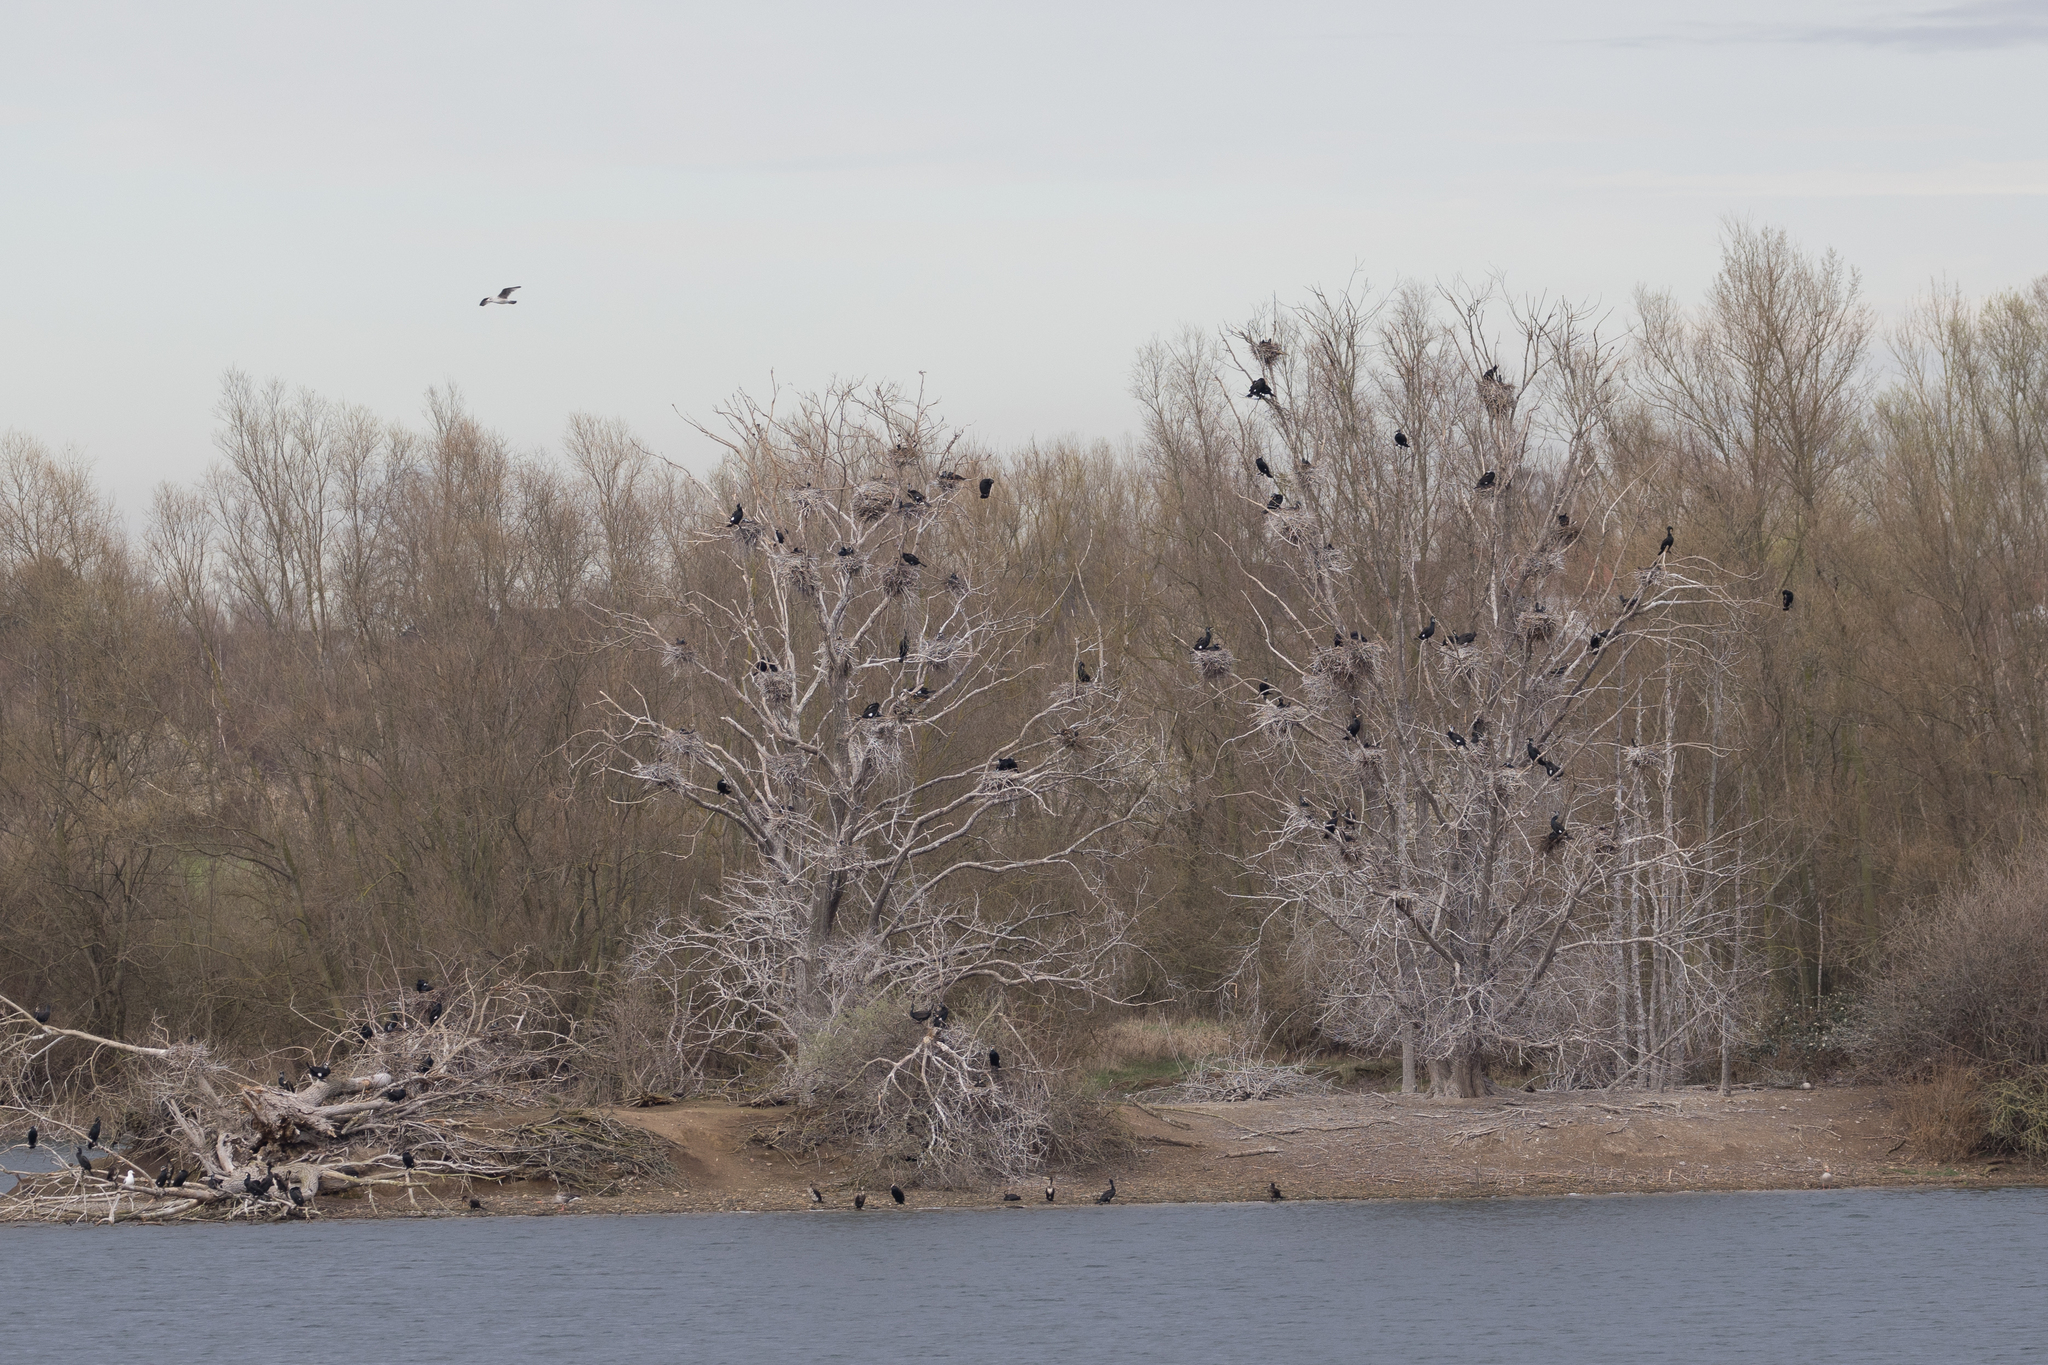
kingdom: Animalia
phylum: Chordata
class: Aves
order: Suliformes
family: Phalacrocoracidae
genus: Phalacrocorax
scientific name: Phalacrocorax carbo
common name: Great cormorant
